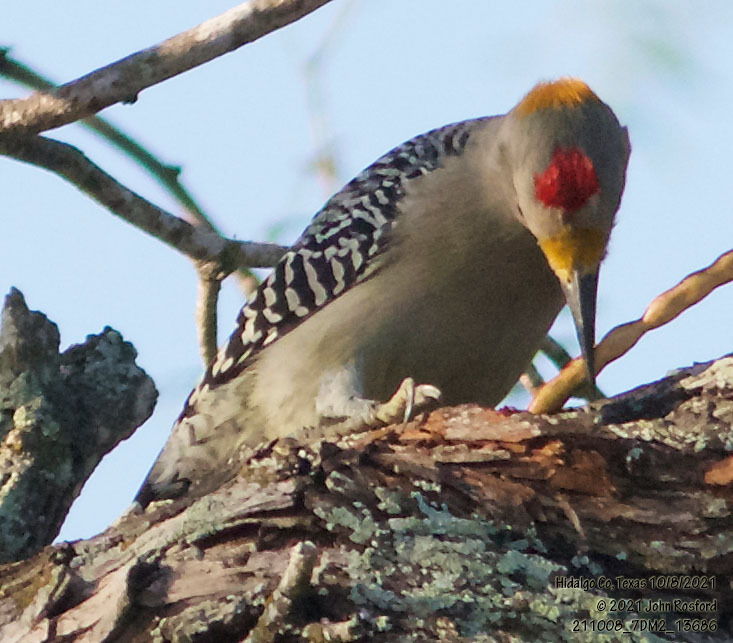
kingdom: Animalia
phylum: Chordata
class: Aves
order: Piciformes
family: Picidae
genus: Melanerpes
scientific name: Melanerpes aurifrons
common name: Golden-fronted woodpecker
